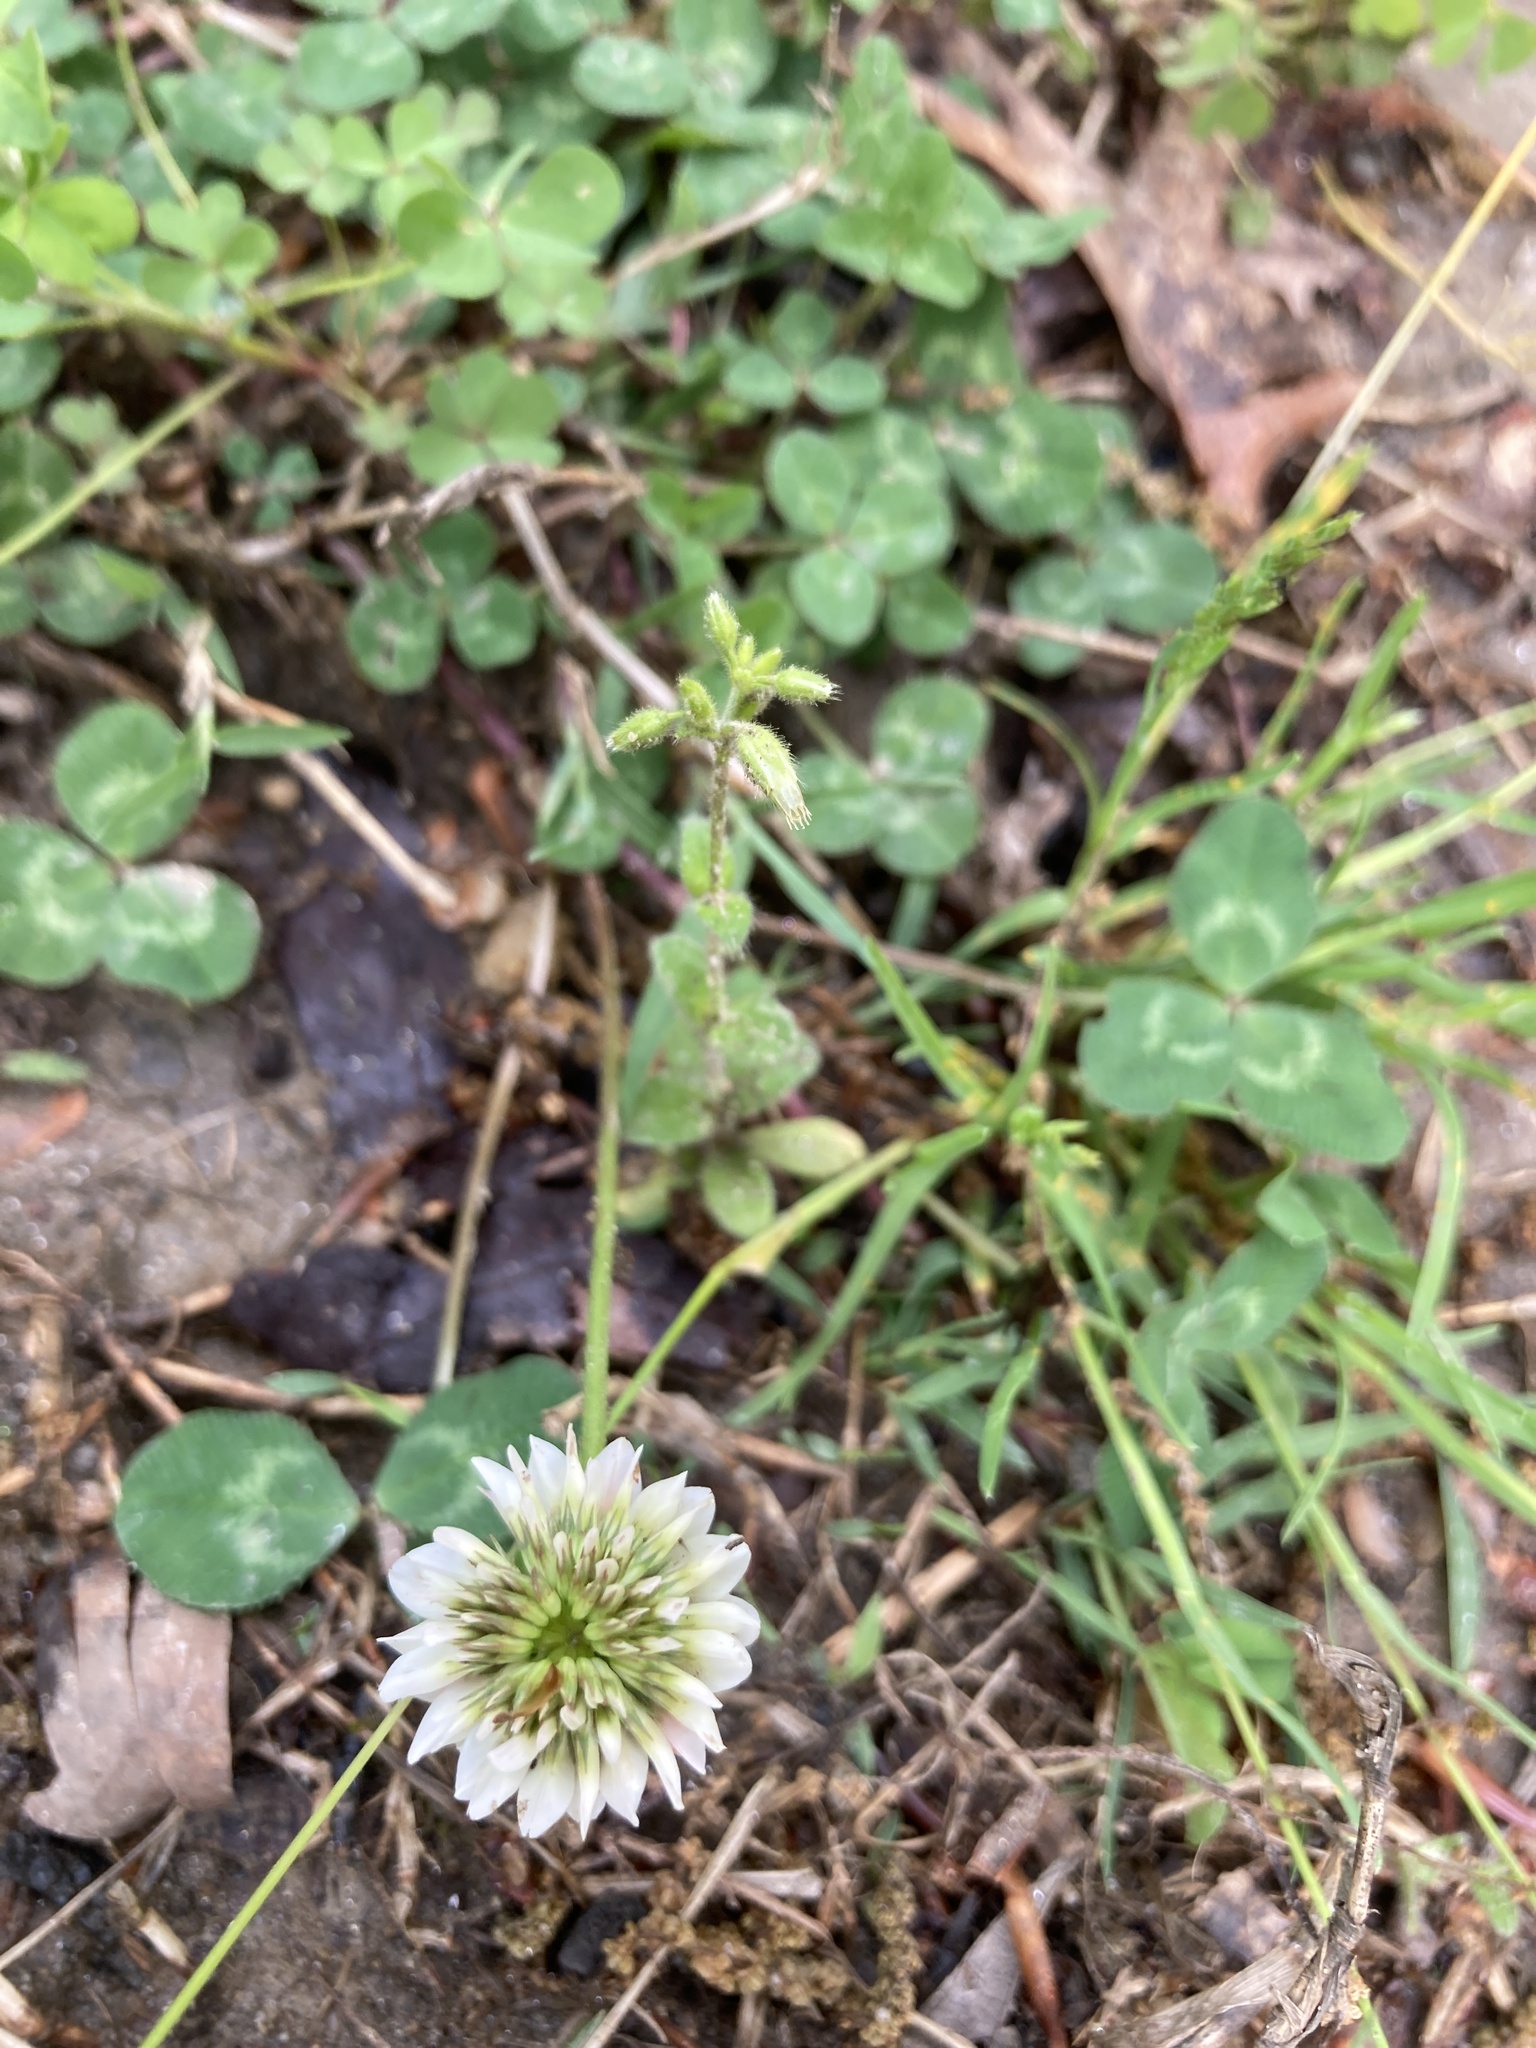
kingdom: Plantae
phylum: Tracheophyta
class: Magnoliopsida
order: Fabales
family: Fabaceae
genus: Trifolium
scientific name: Trifolium repens
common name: White clover
